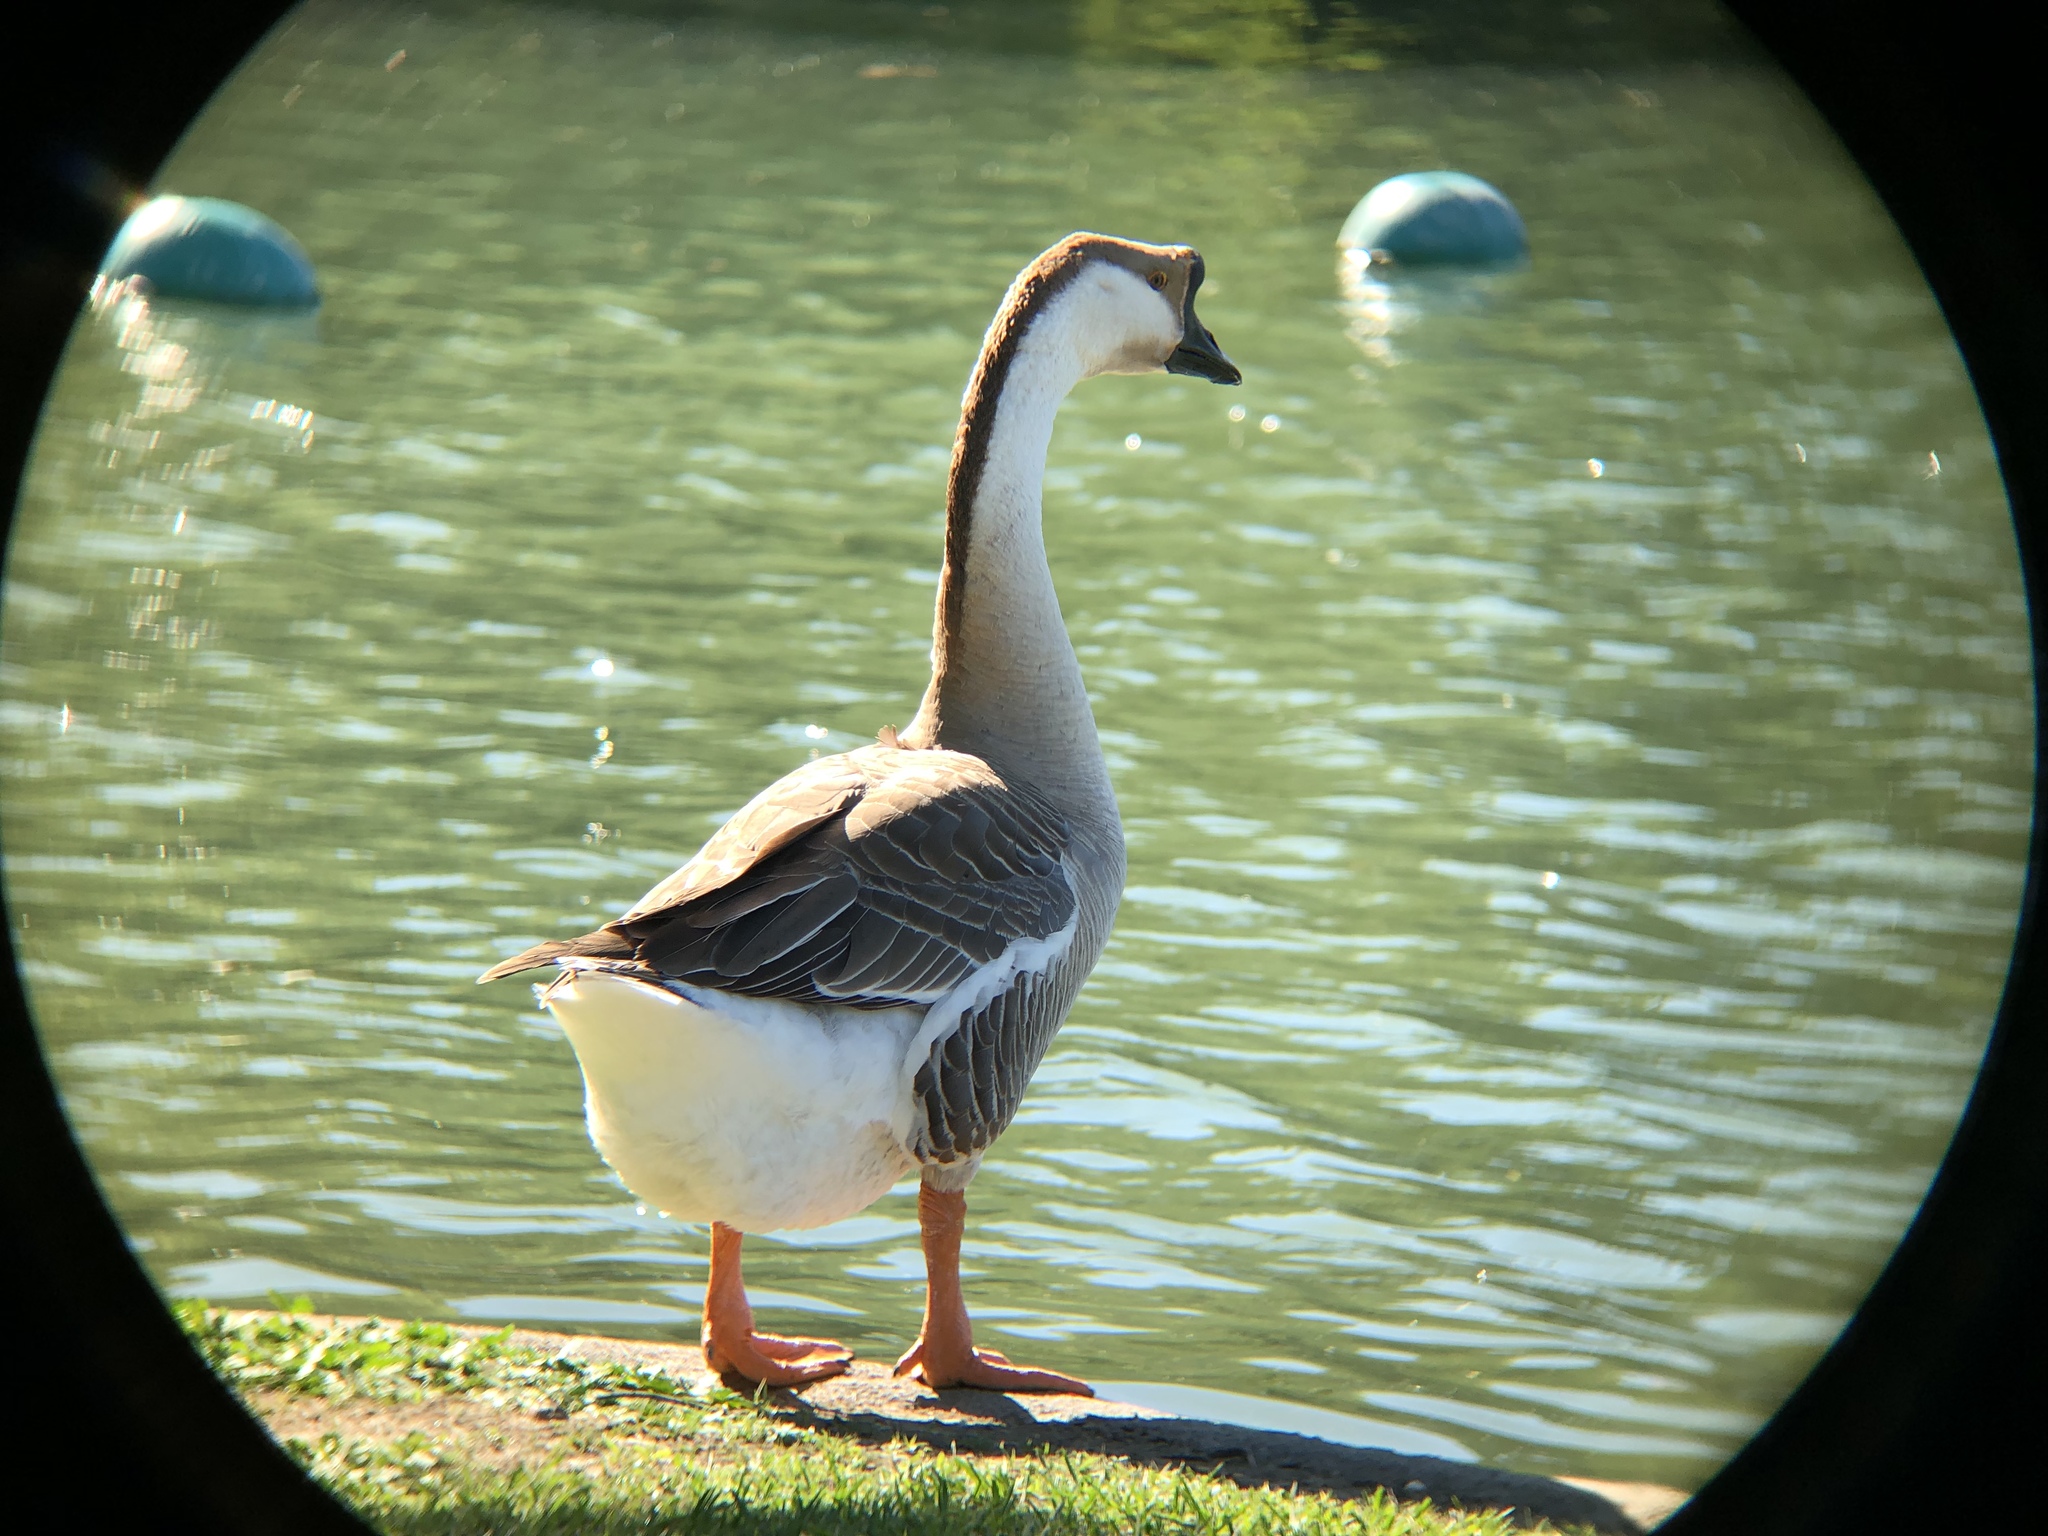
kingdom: Animalia
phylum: Chordata
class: Aves
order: Anseriformes
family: Anatidae
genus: Anser
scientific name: Anser cygnoides
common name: Swan goose
